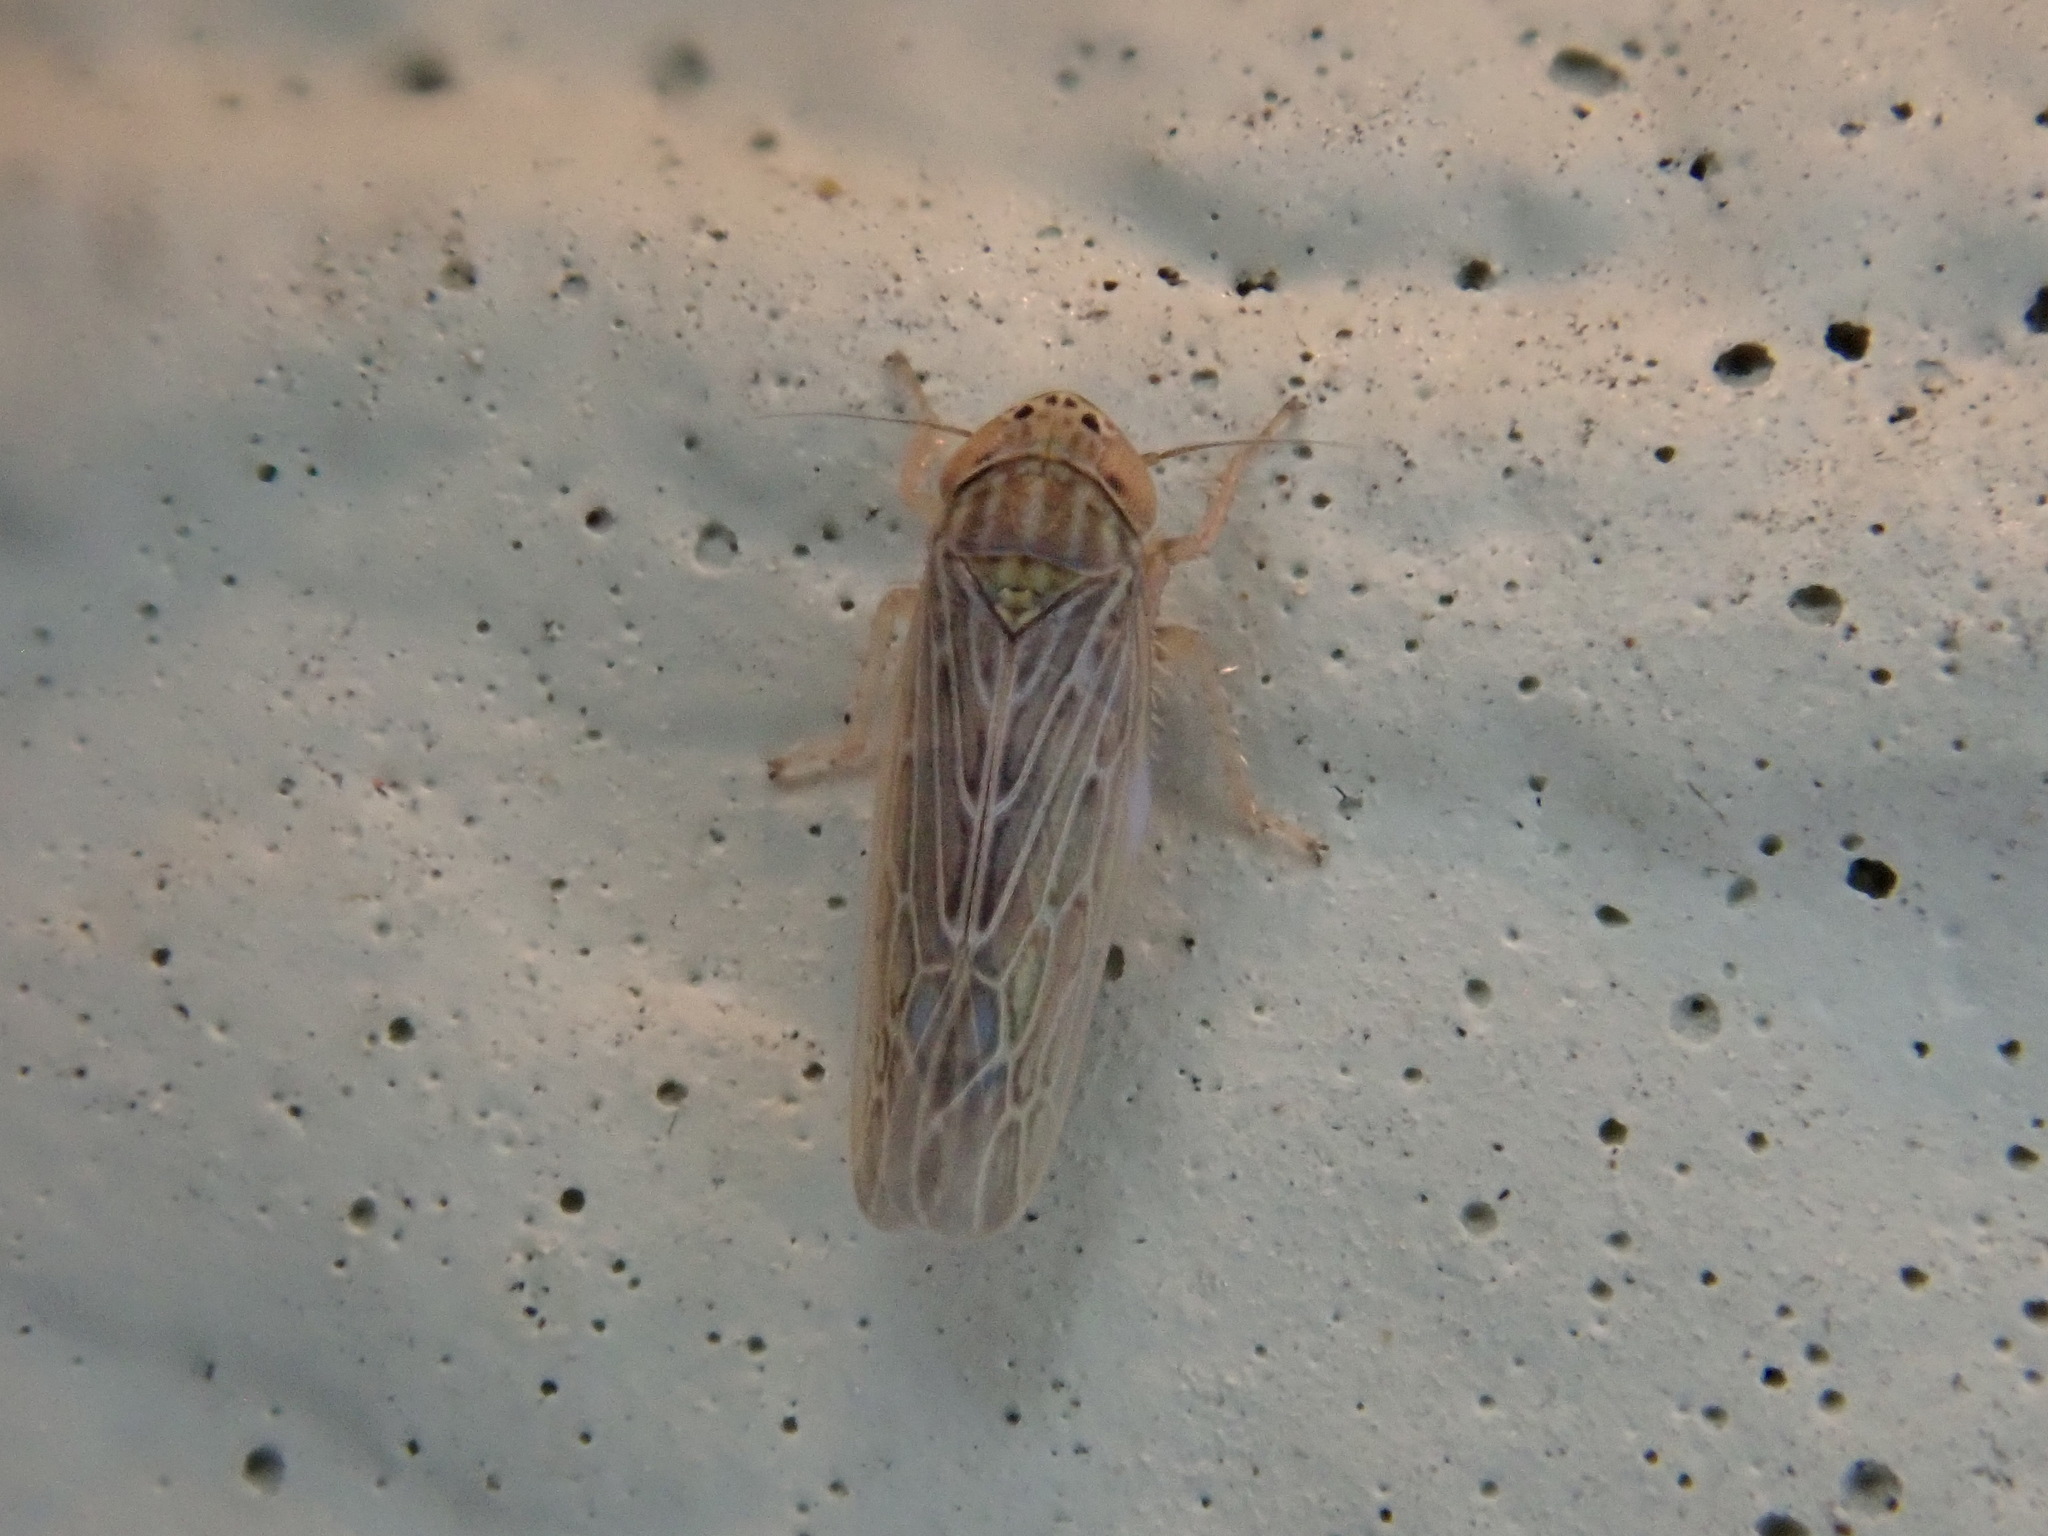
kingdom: Animalia
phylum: Arthropoda
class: Insecta
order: Hemiptera
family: Cicadellidae
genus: Graminella
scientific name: Graminella sonora
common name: Lesser lawn leafhopper
